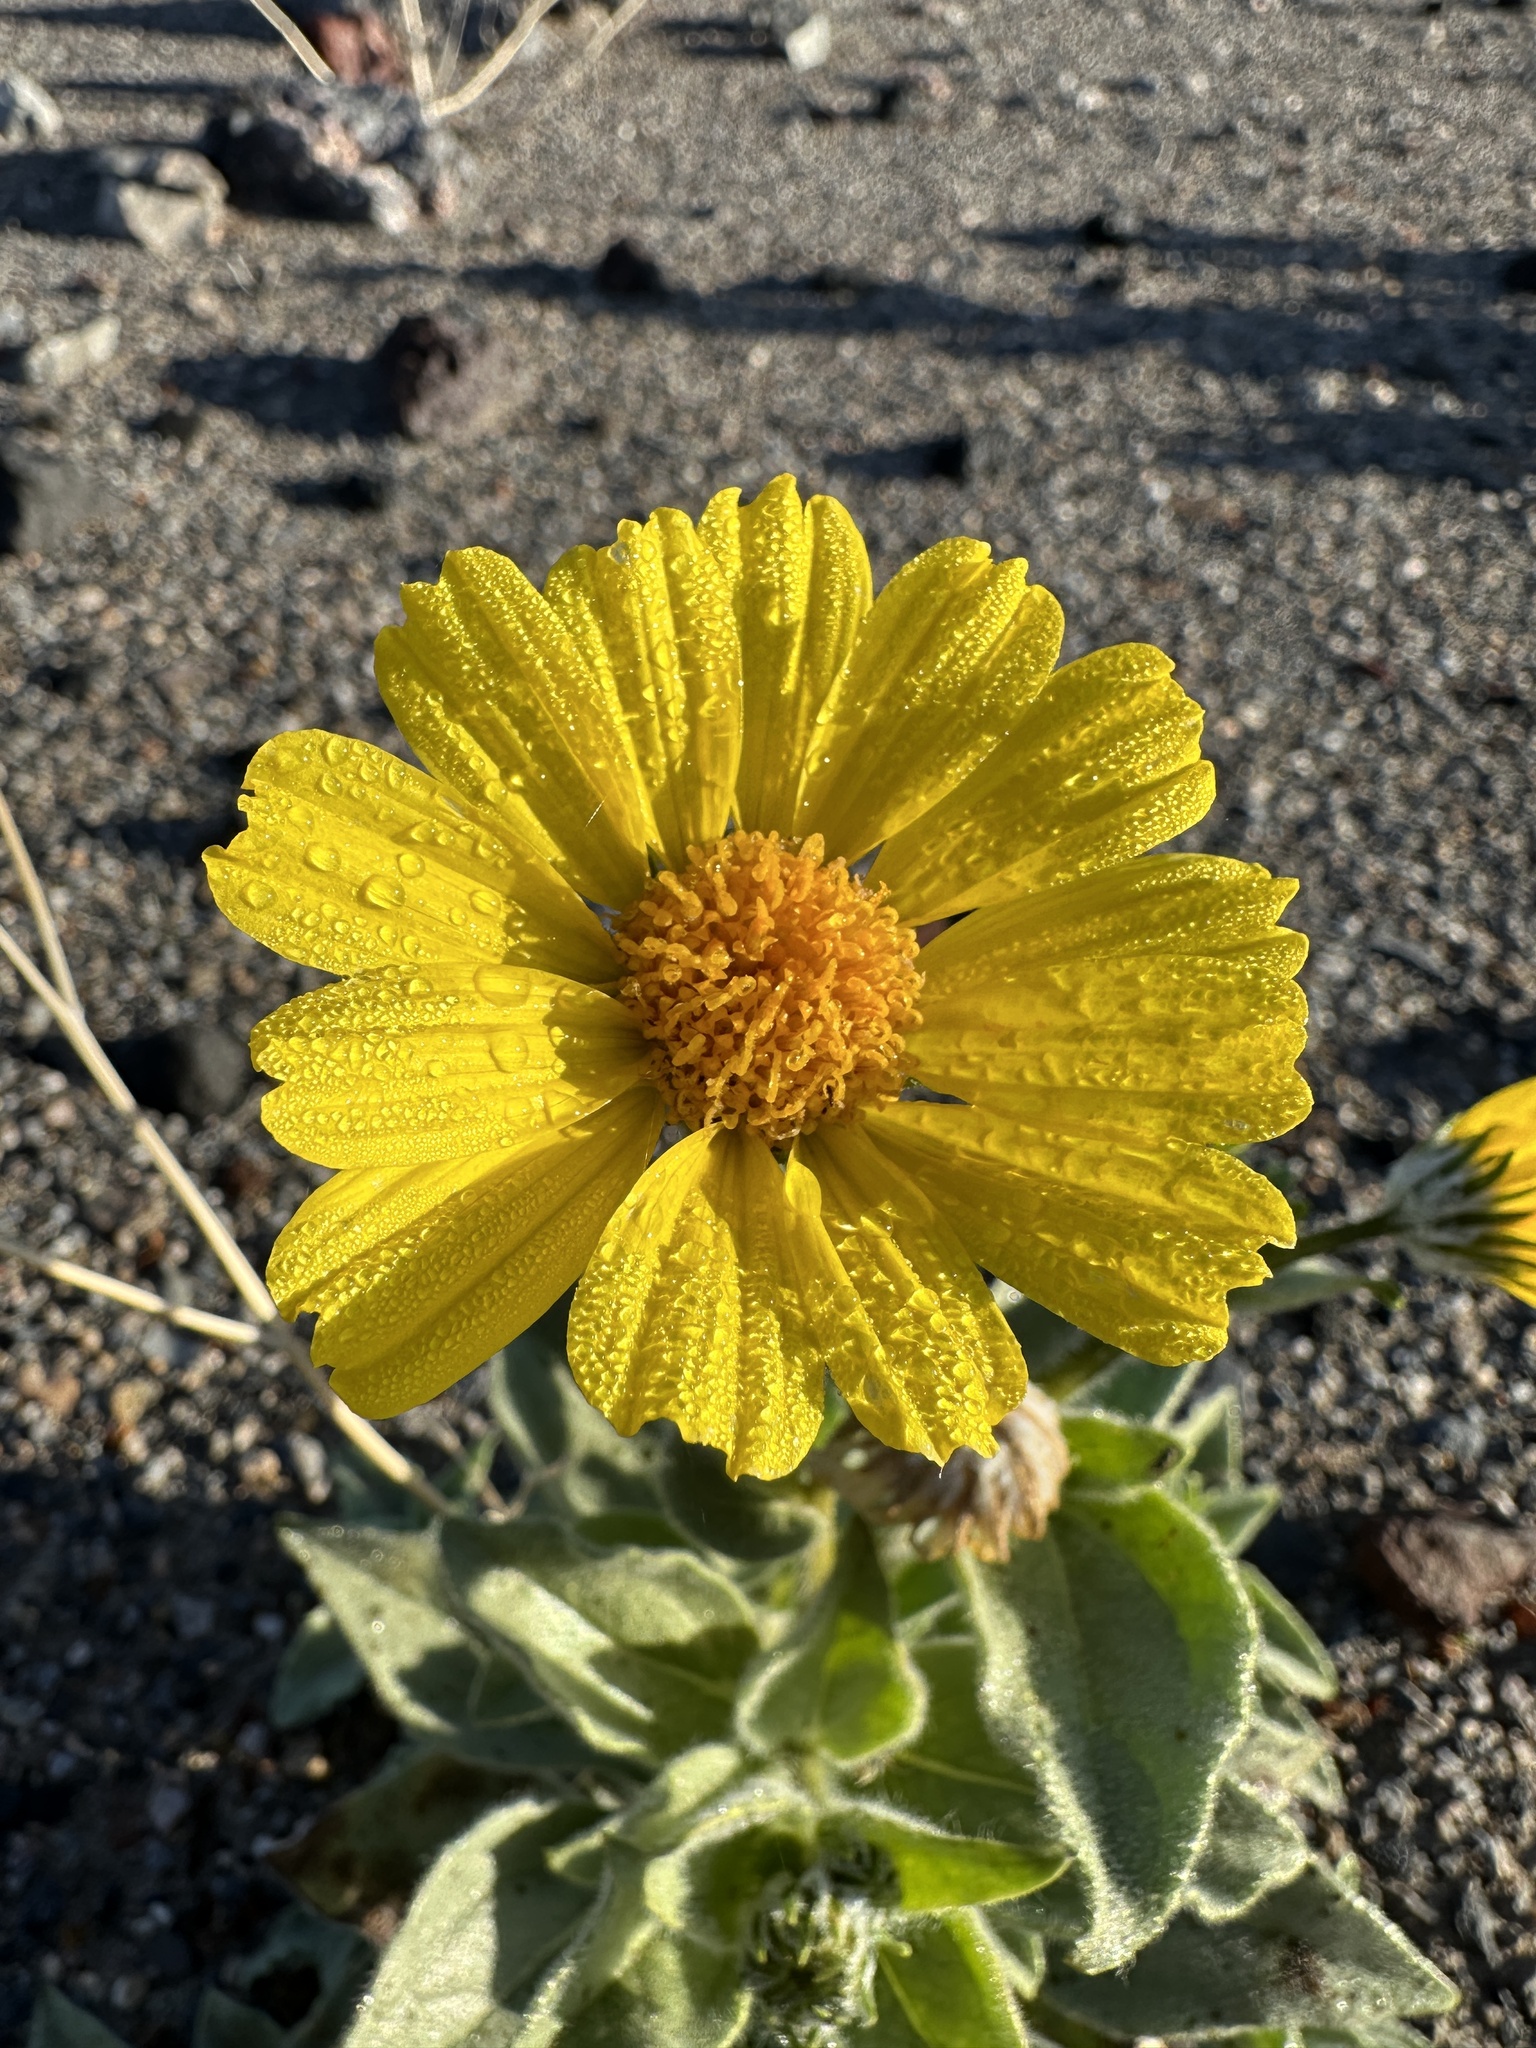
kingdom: Plantae
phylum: Tracheophyta
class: Magnoliopsida
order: Asterales
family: Asteraceae
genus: Geraea
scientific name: Geraea canescens
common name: Desert-gold
